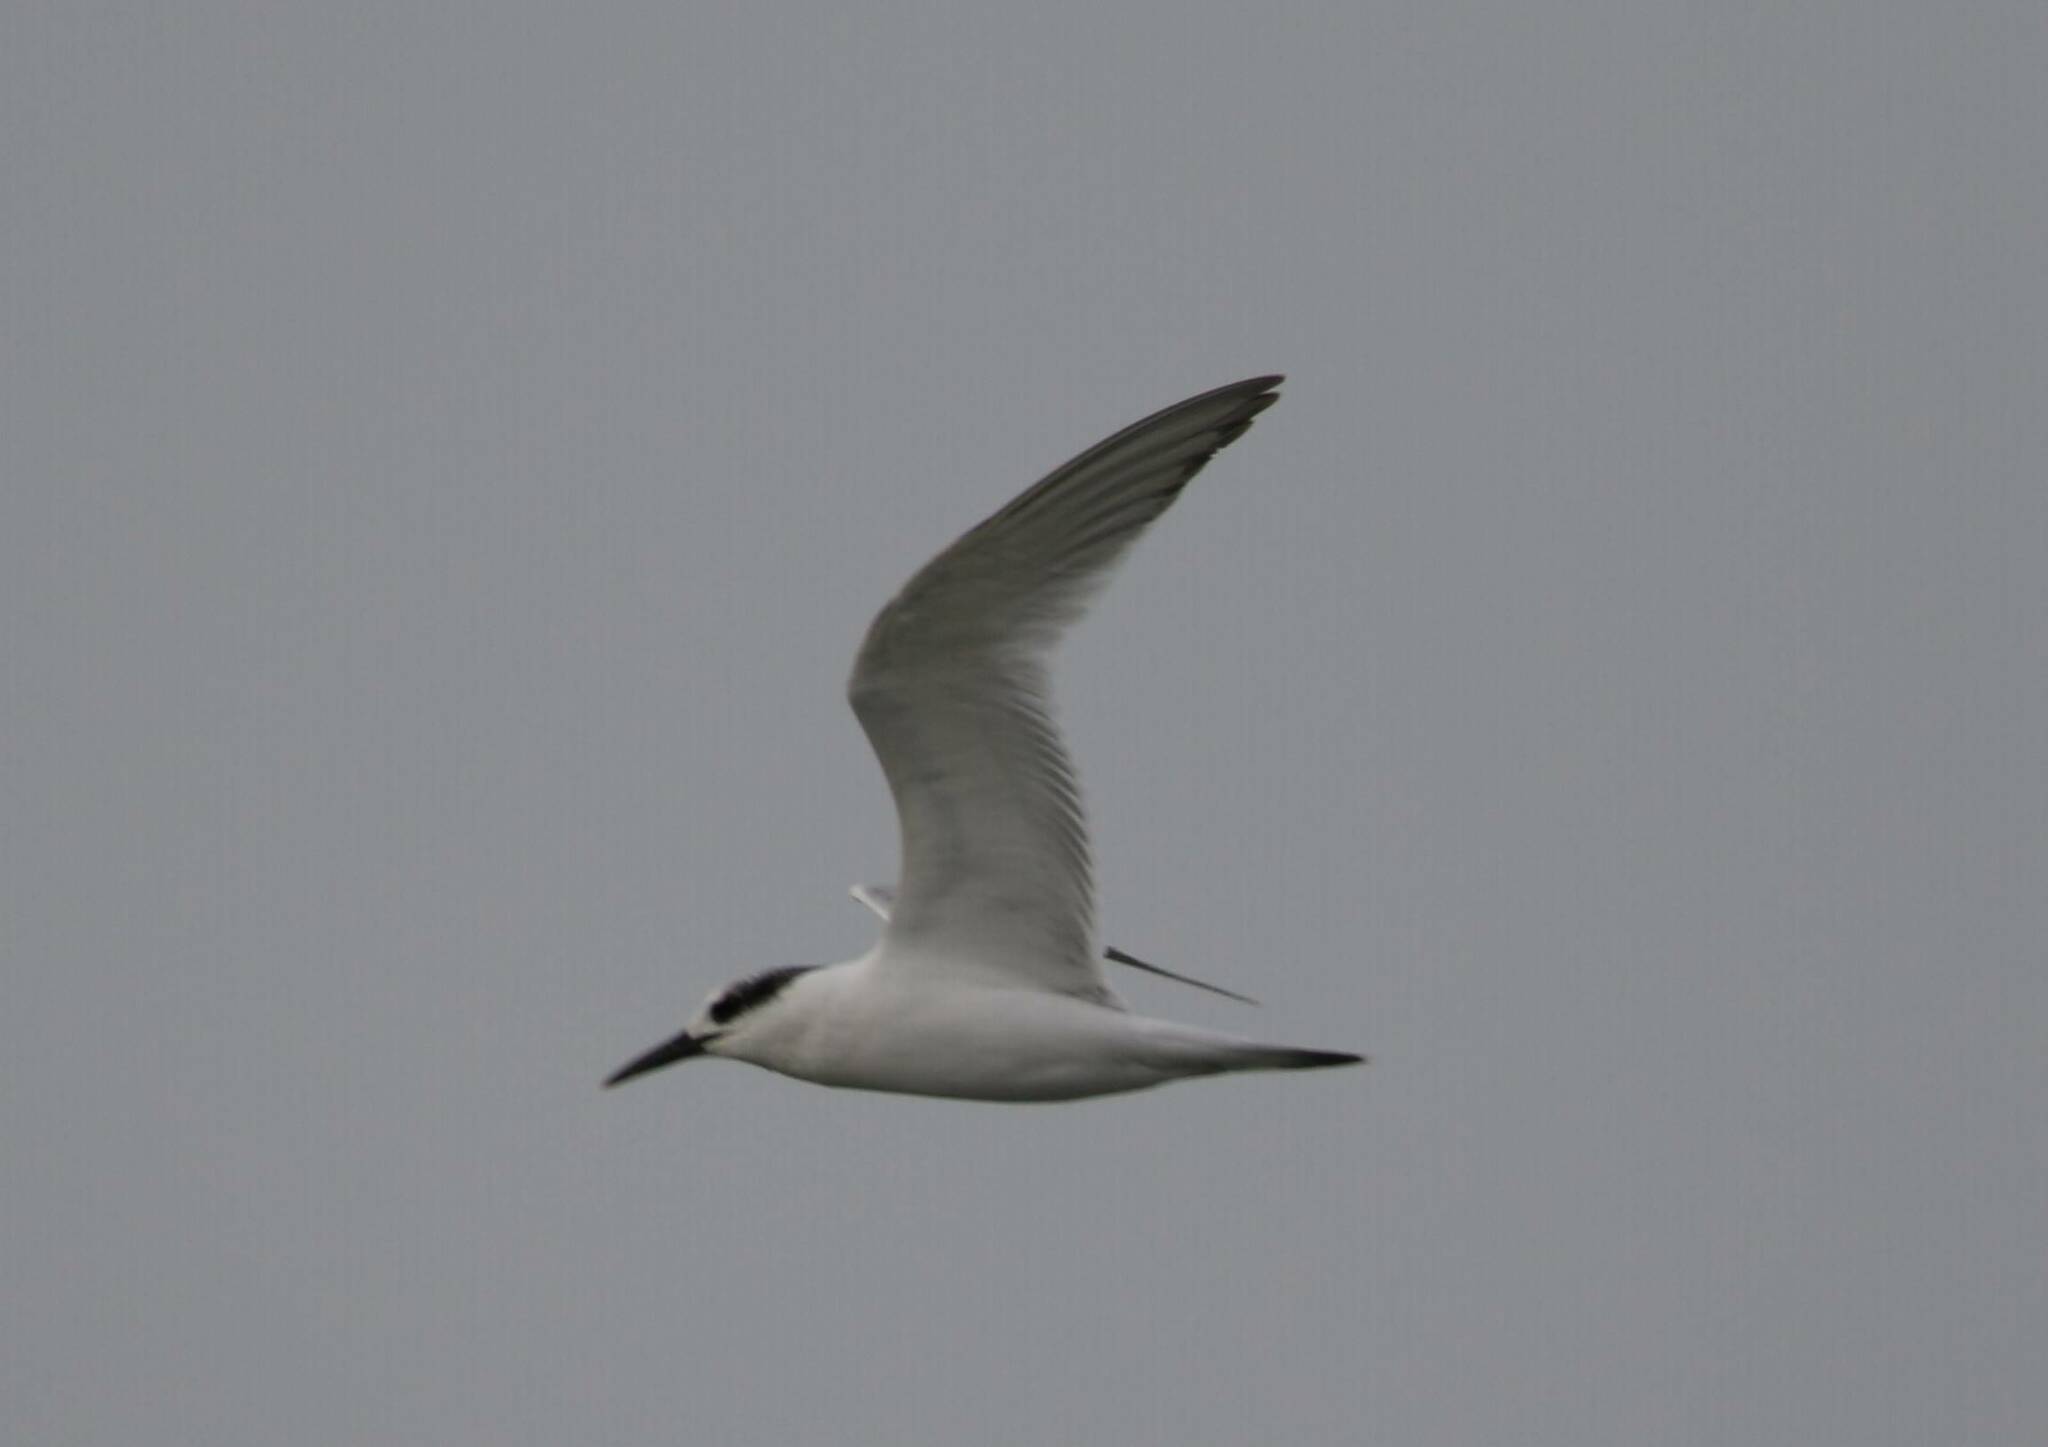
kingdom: Animalia
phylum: Chordata
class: Aves
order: Charadriiformes
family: Laridae
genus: Thalasseus
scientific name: Thalasseus sandvicensis
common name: Sandwich tern
